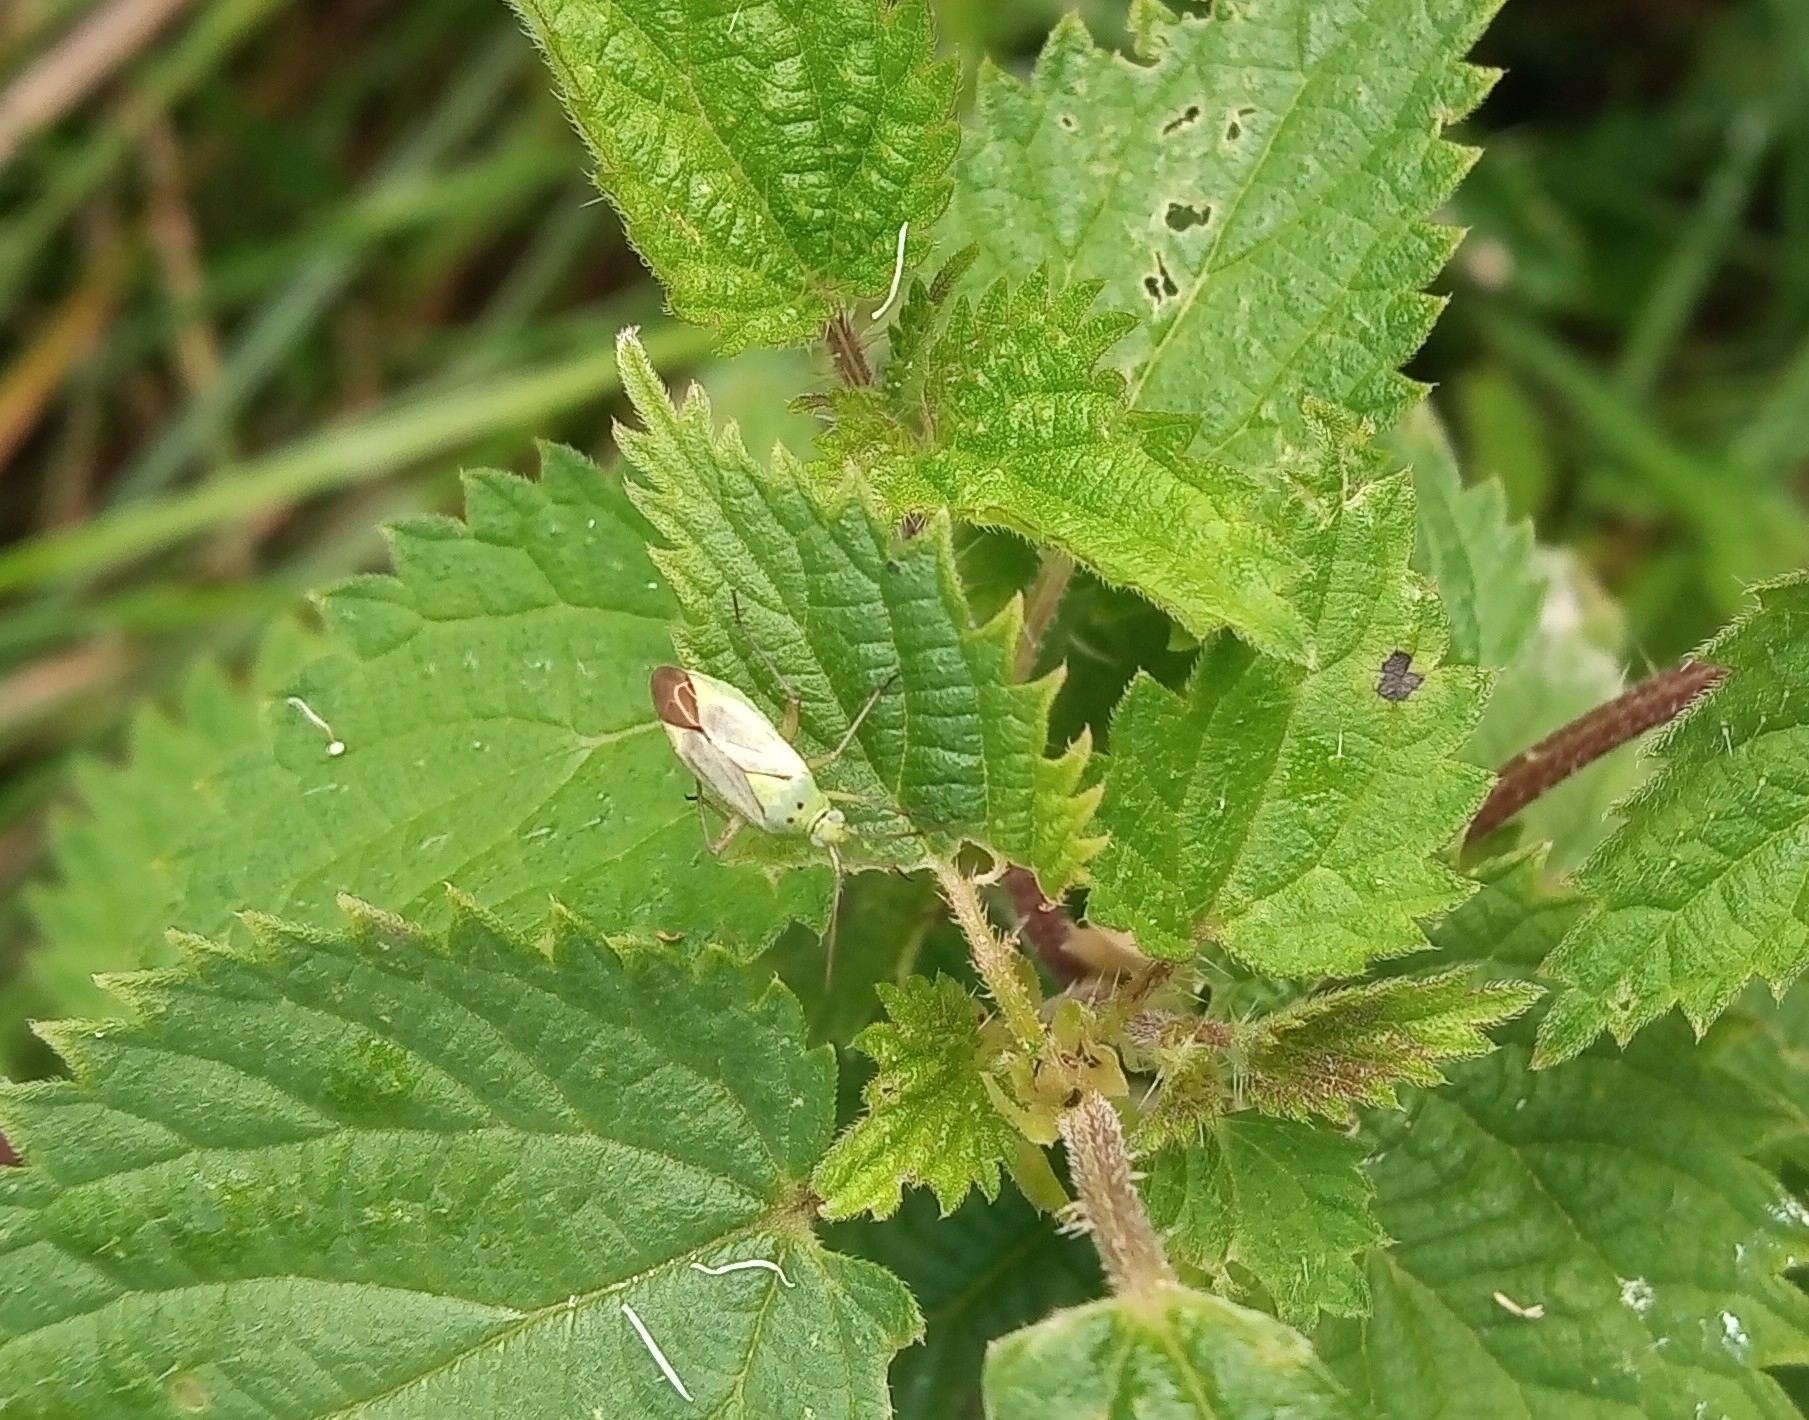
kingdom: Animalia
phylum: Arthropoda
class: Insecta
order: Hemiptera
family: Miridae
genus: Closterotomus
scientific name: Closterotomus norvegicus
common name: Plant bug
